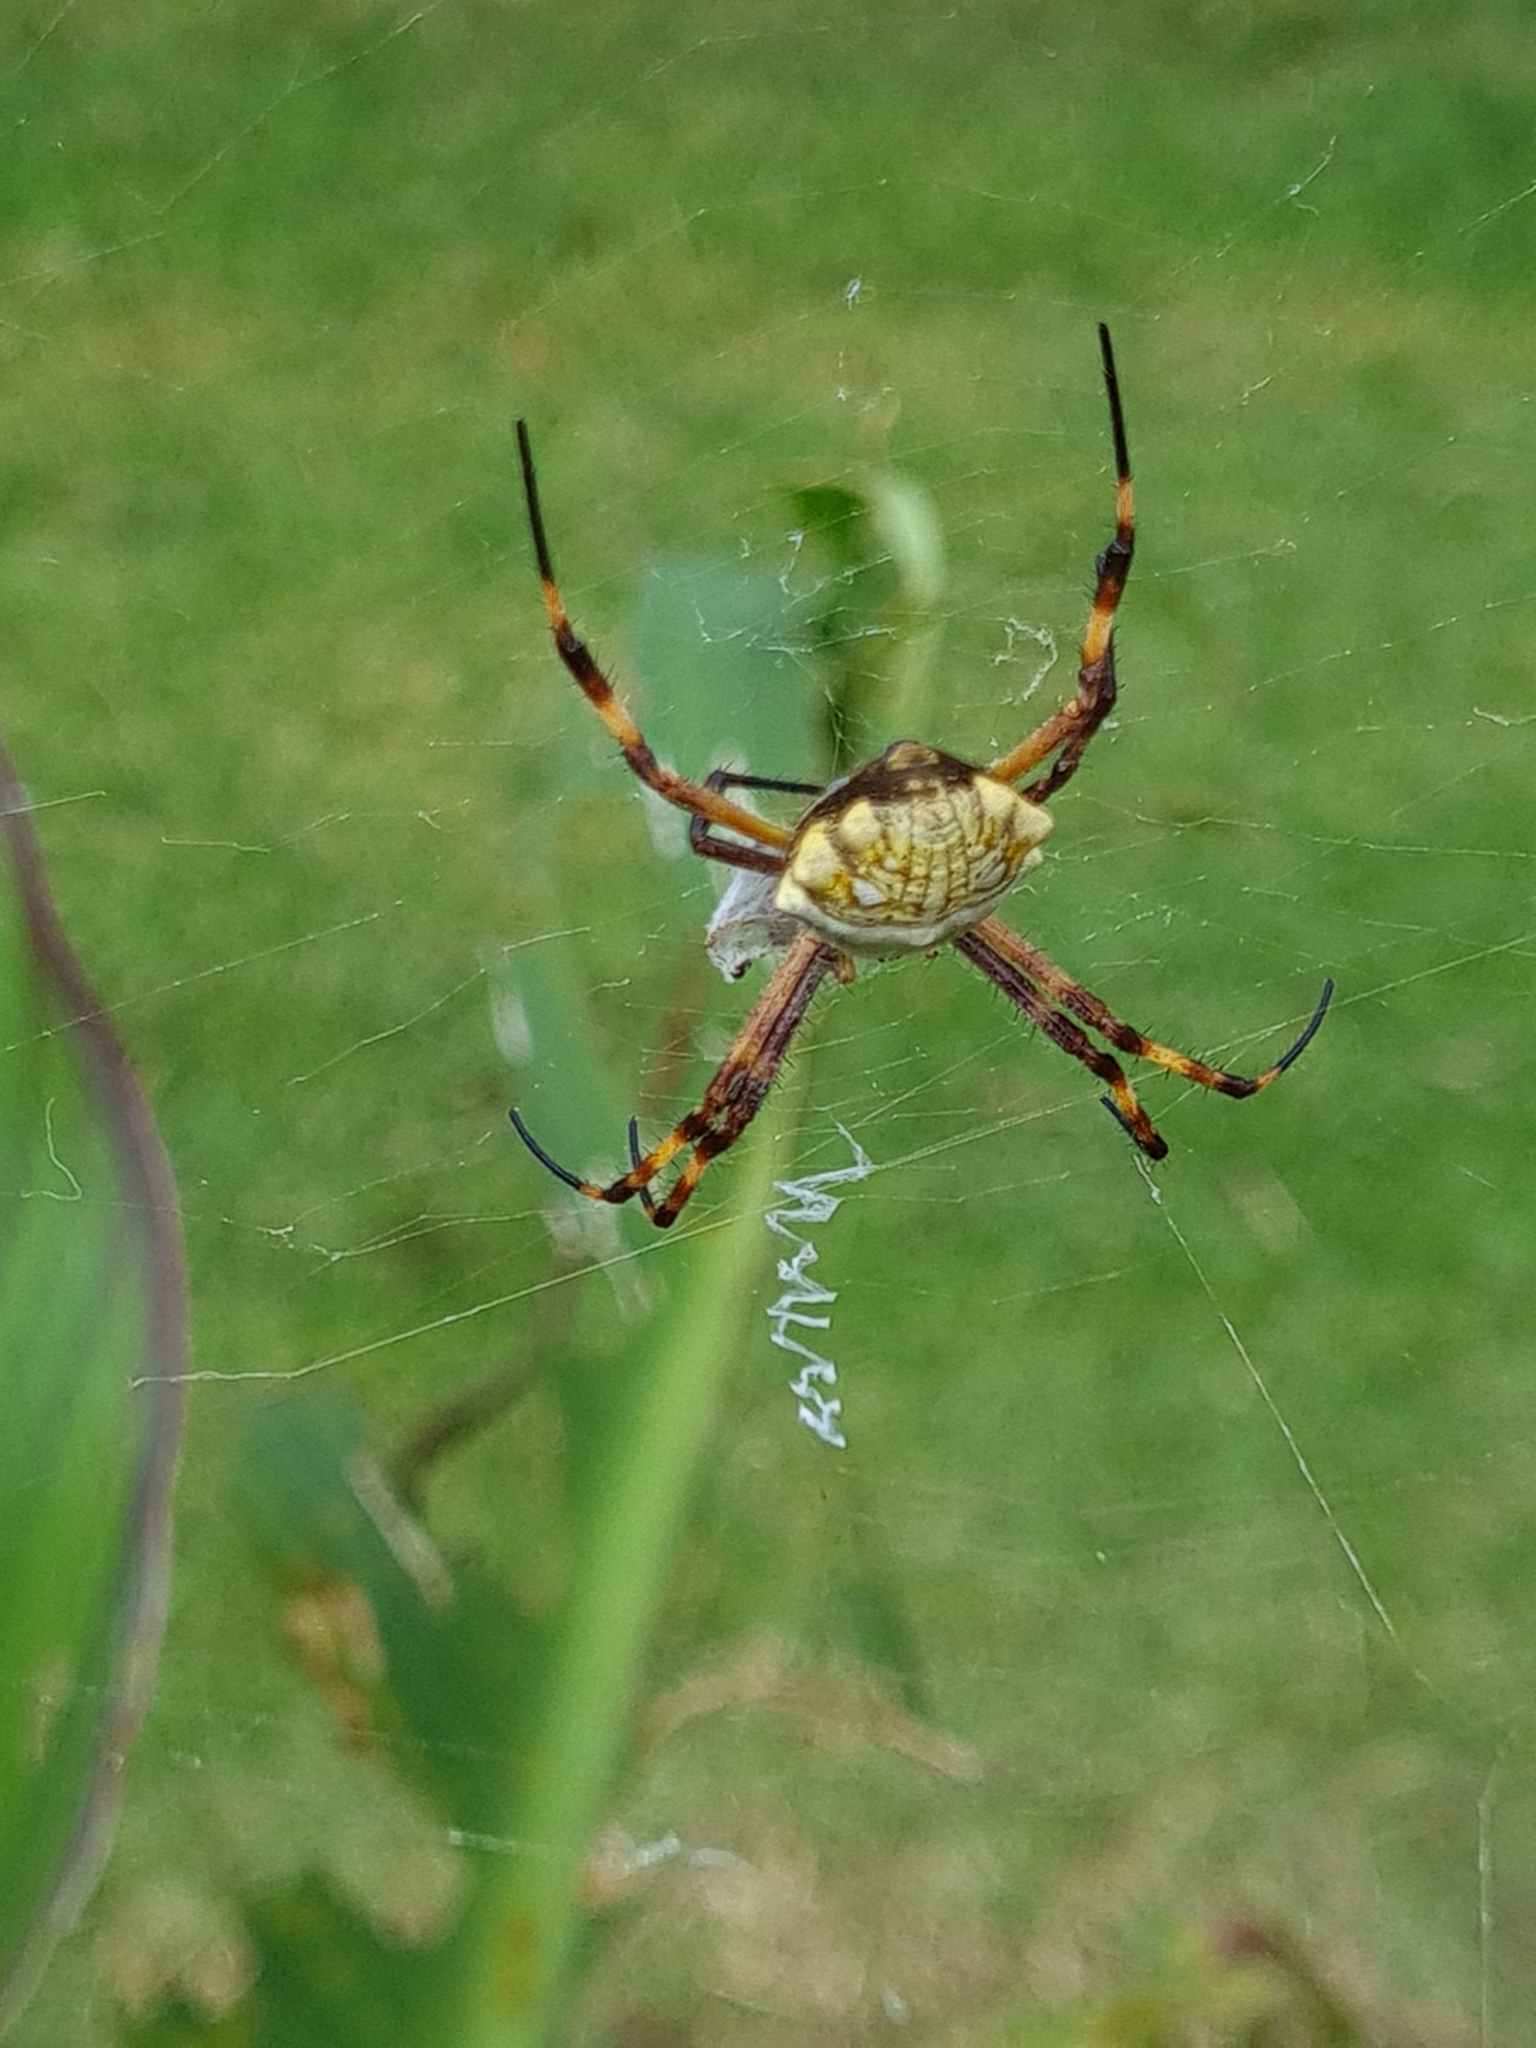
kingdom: Animalia
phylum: Arthropoda
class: Arachnida
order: Araneae
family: Araneidae
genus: Argiope
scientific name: Argiope argentata
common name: Orb weavers
